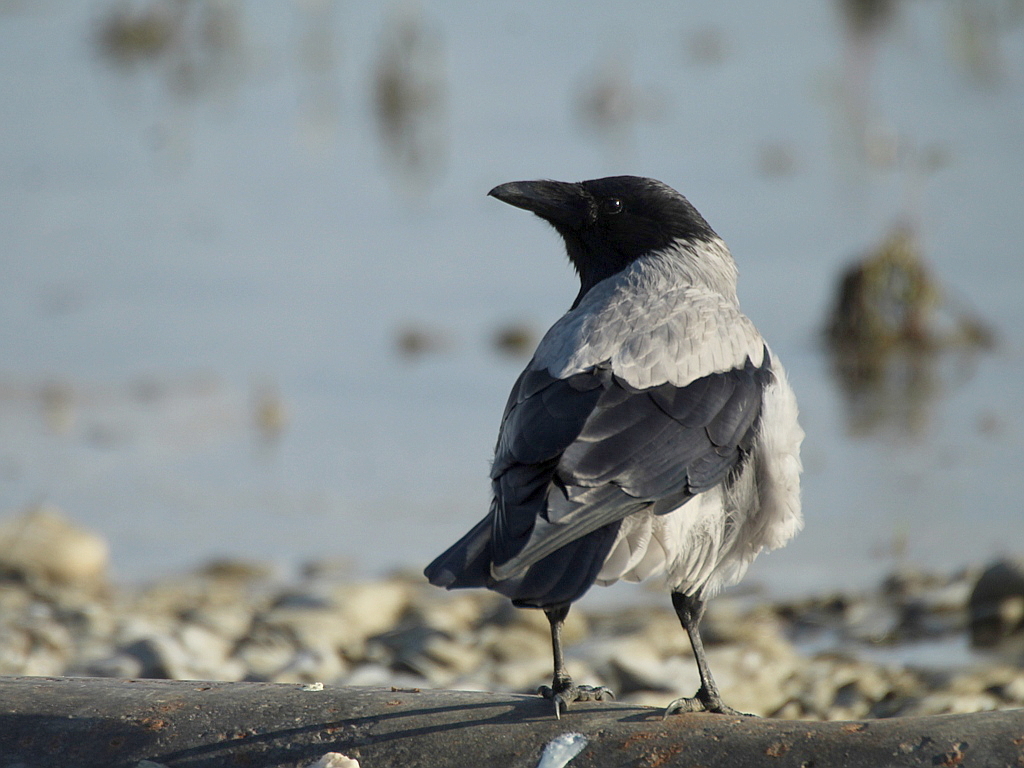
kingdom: Animalia
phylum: Chordata
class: Aves
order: Passeriformes
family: Corvidae
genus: Corvus
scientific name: Corvus cornix
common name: Hooded crow
